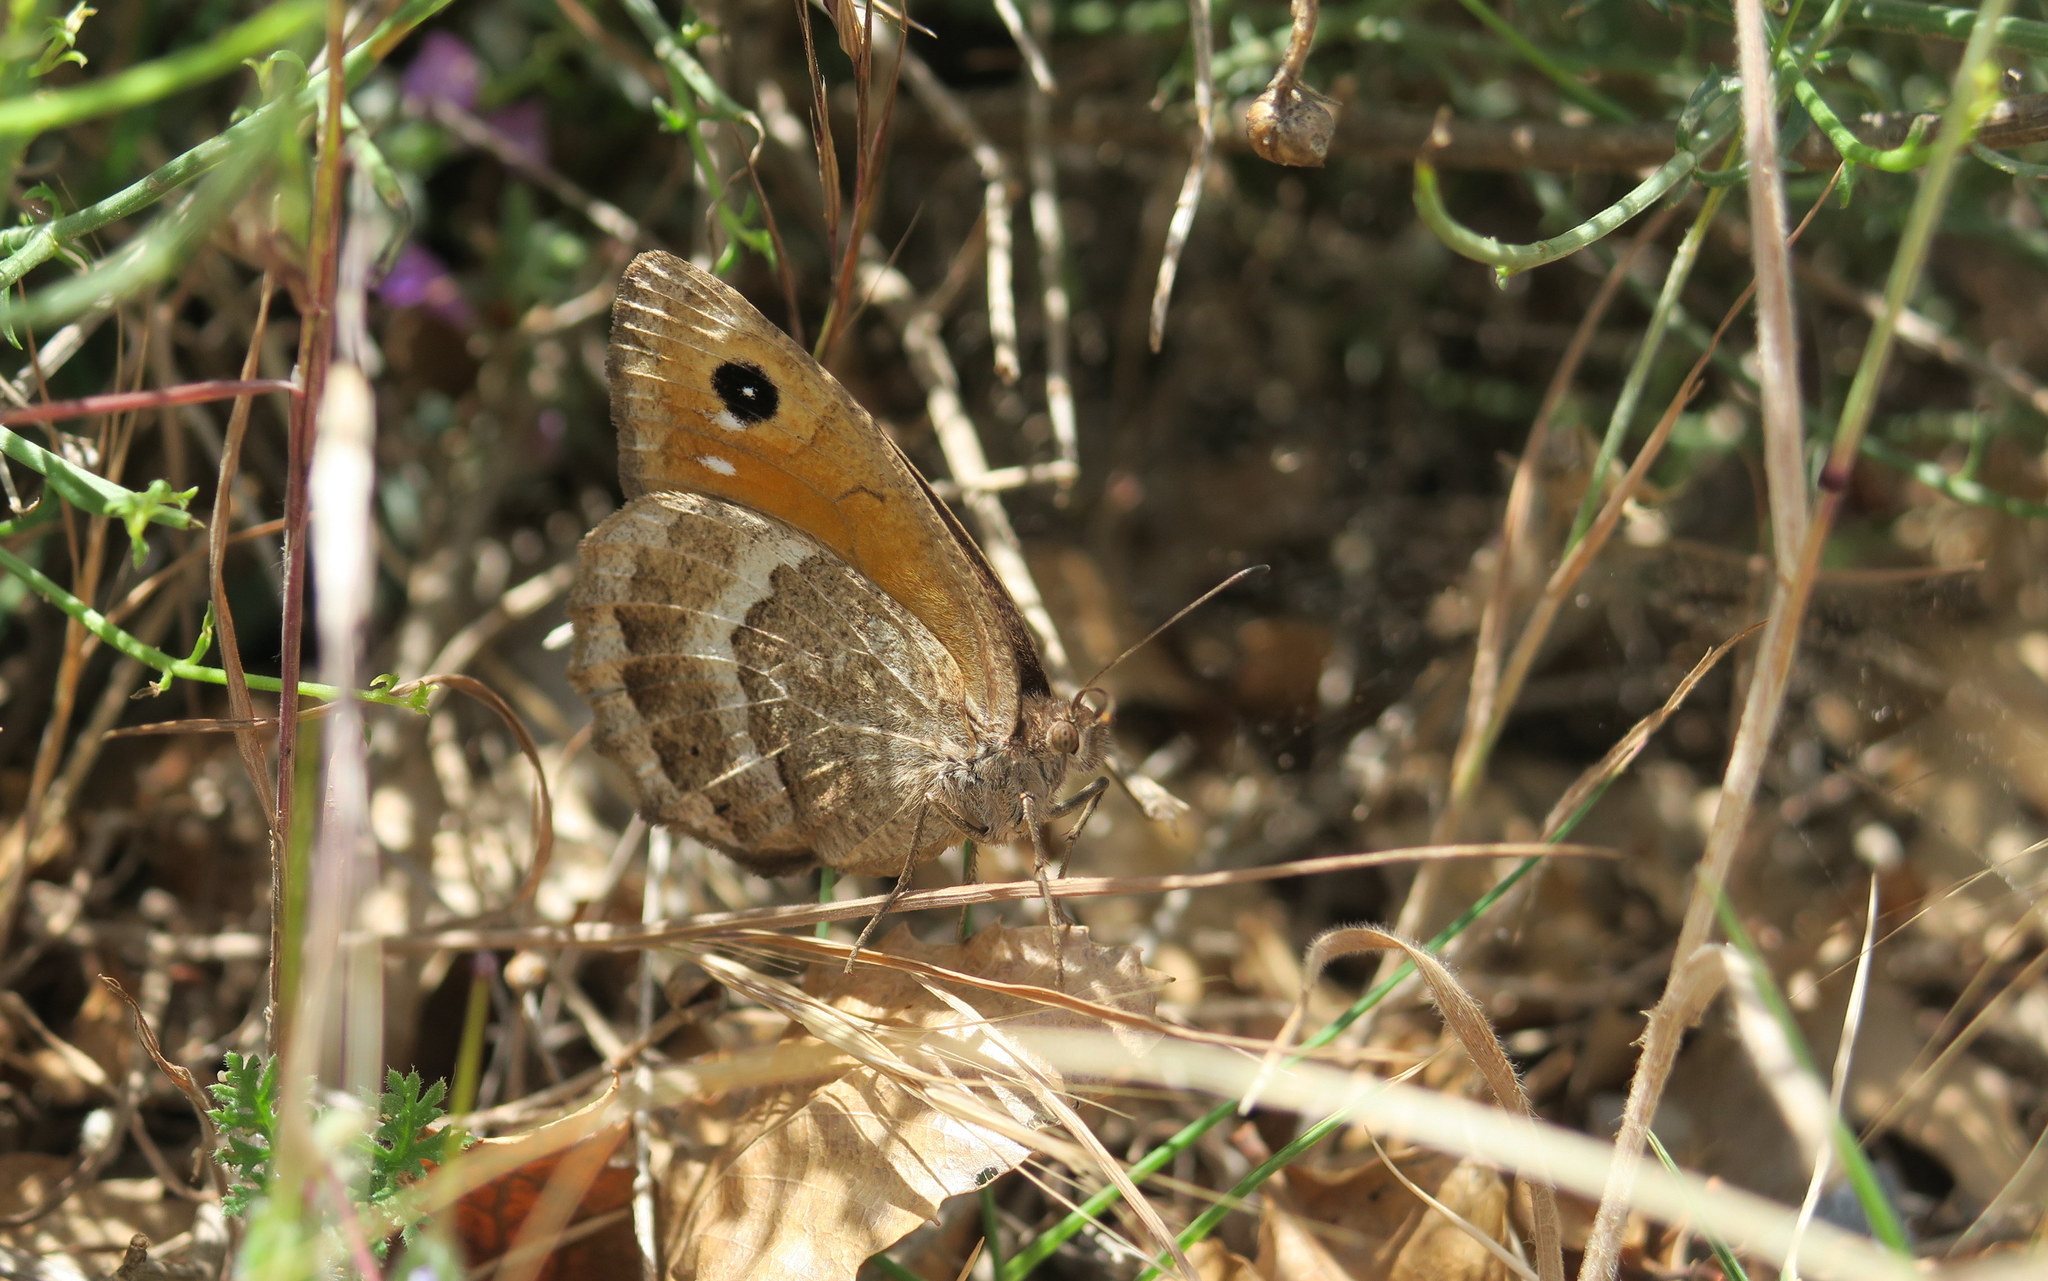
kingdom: Animalia
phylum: Arthropoda
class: Insecta
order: Lepidoptera
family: Nymphalidae
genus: Satyrus
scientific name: Satyrus ferula
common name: Great sooty satyr
